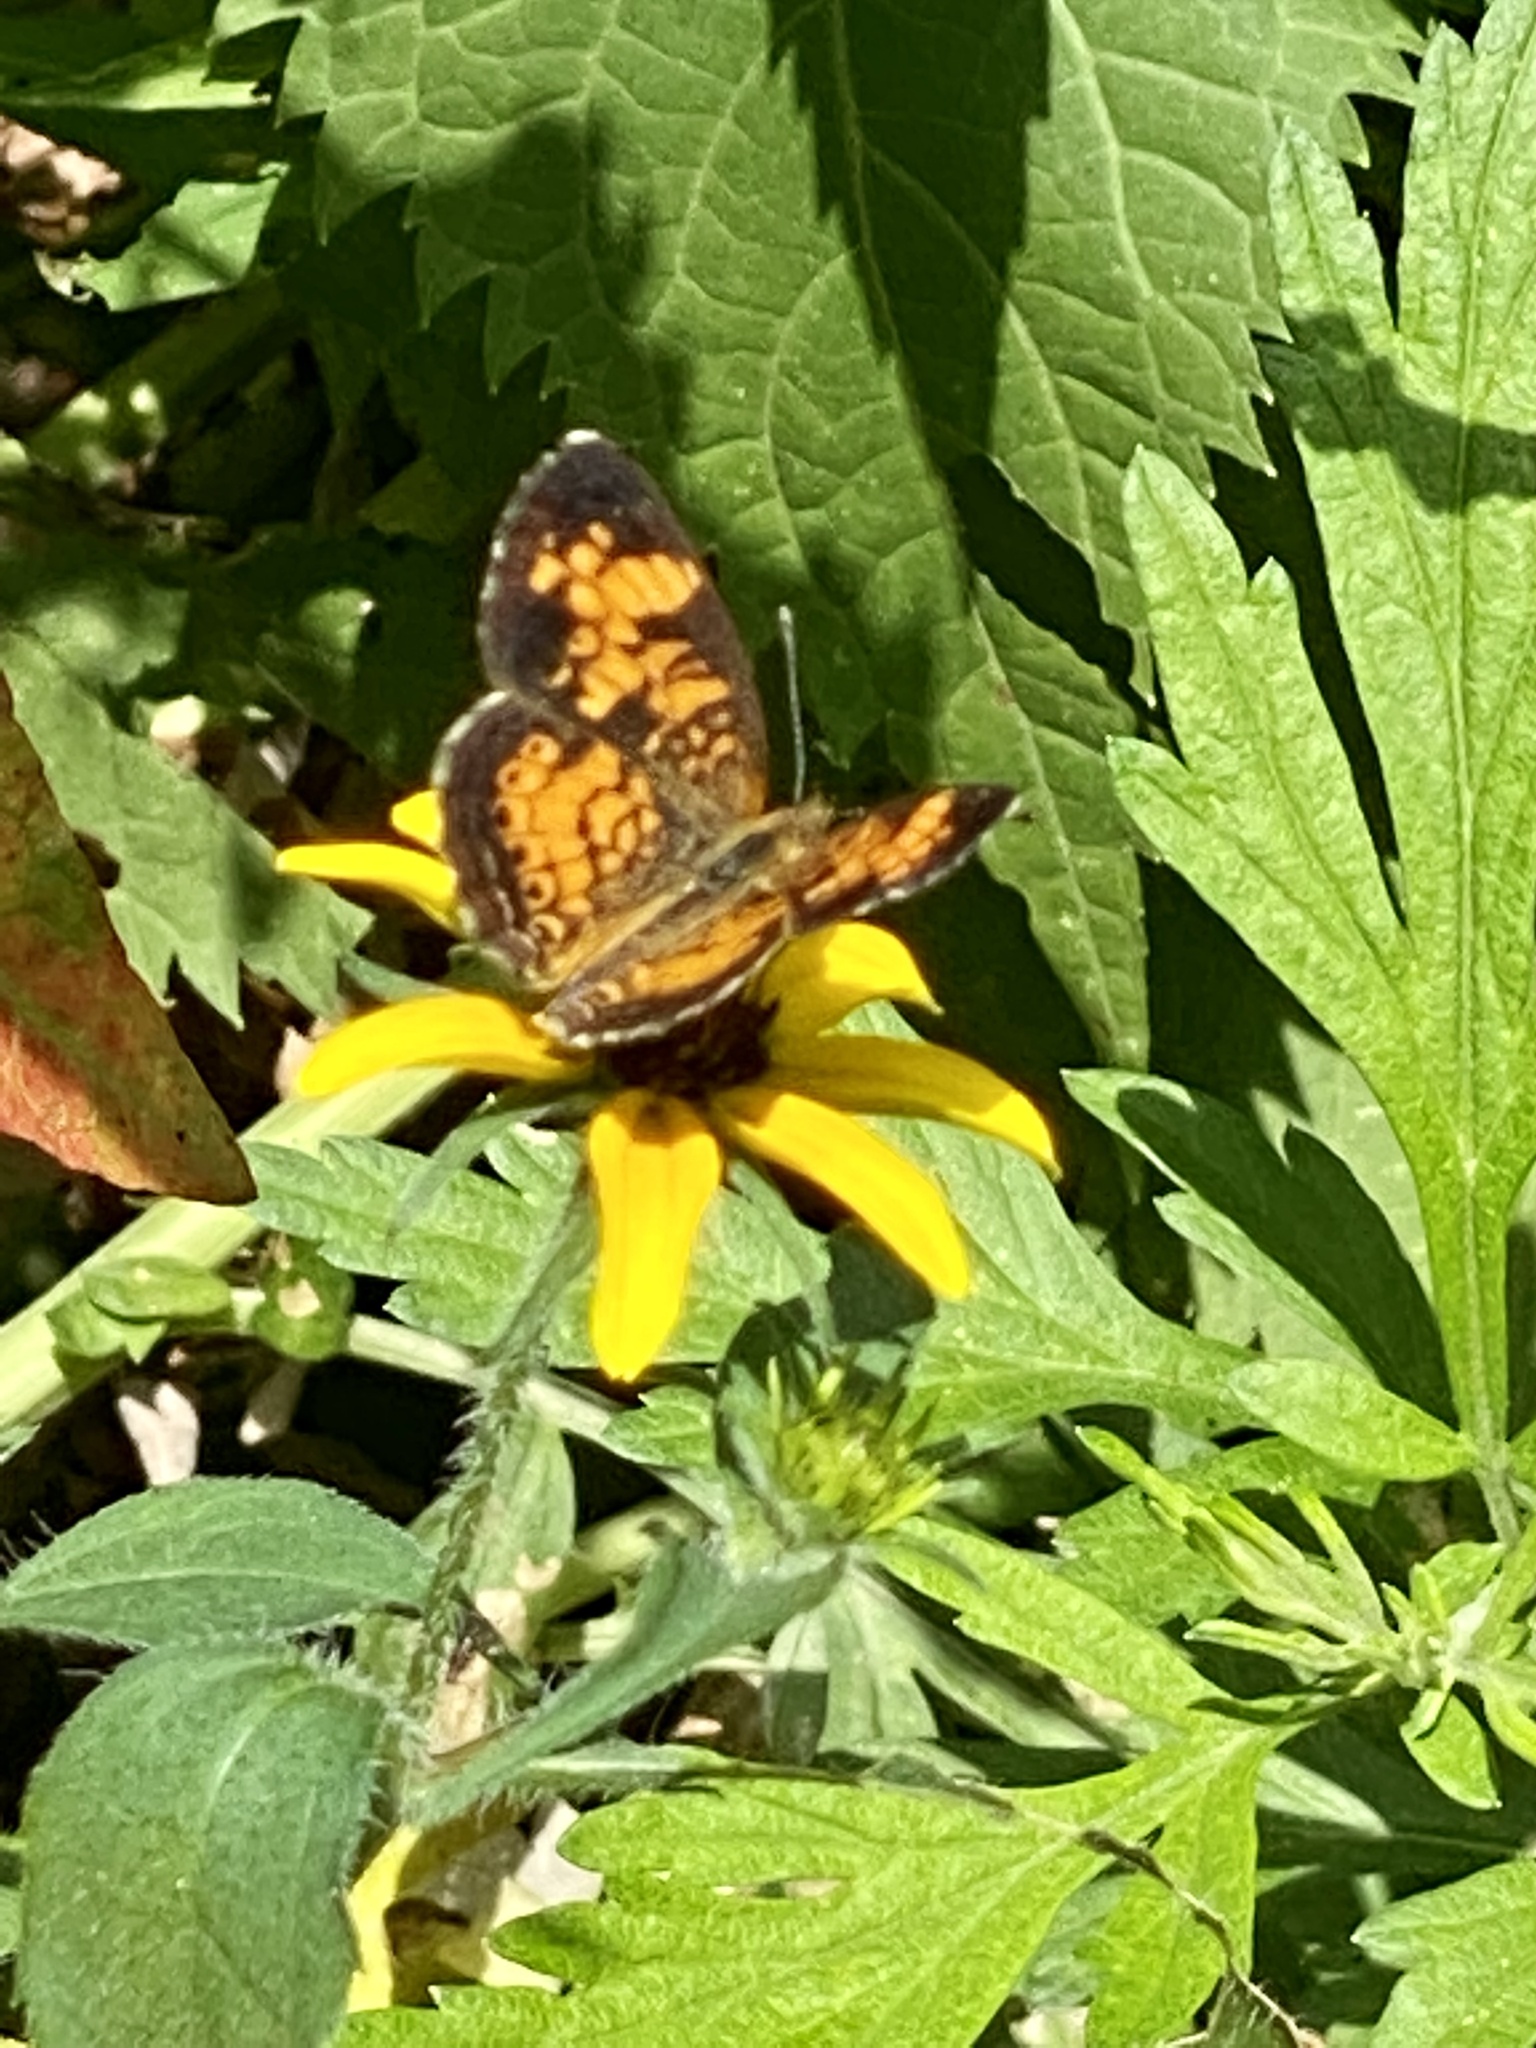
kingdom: Animalia
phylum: Arthropoda
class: Insecta
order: Lepidoptera
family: Nymphalidae
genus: Phyciodes
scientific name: Phyciodes tharos
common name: Pearl crescent
